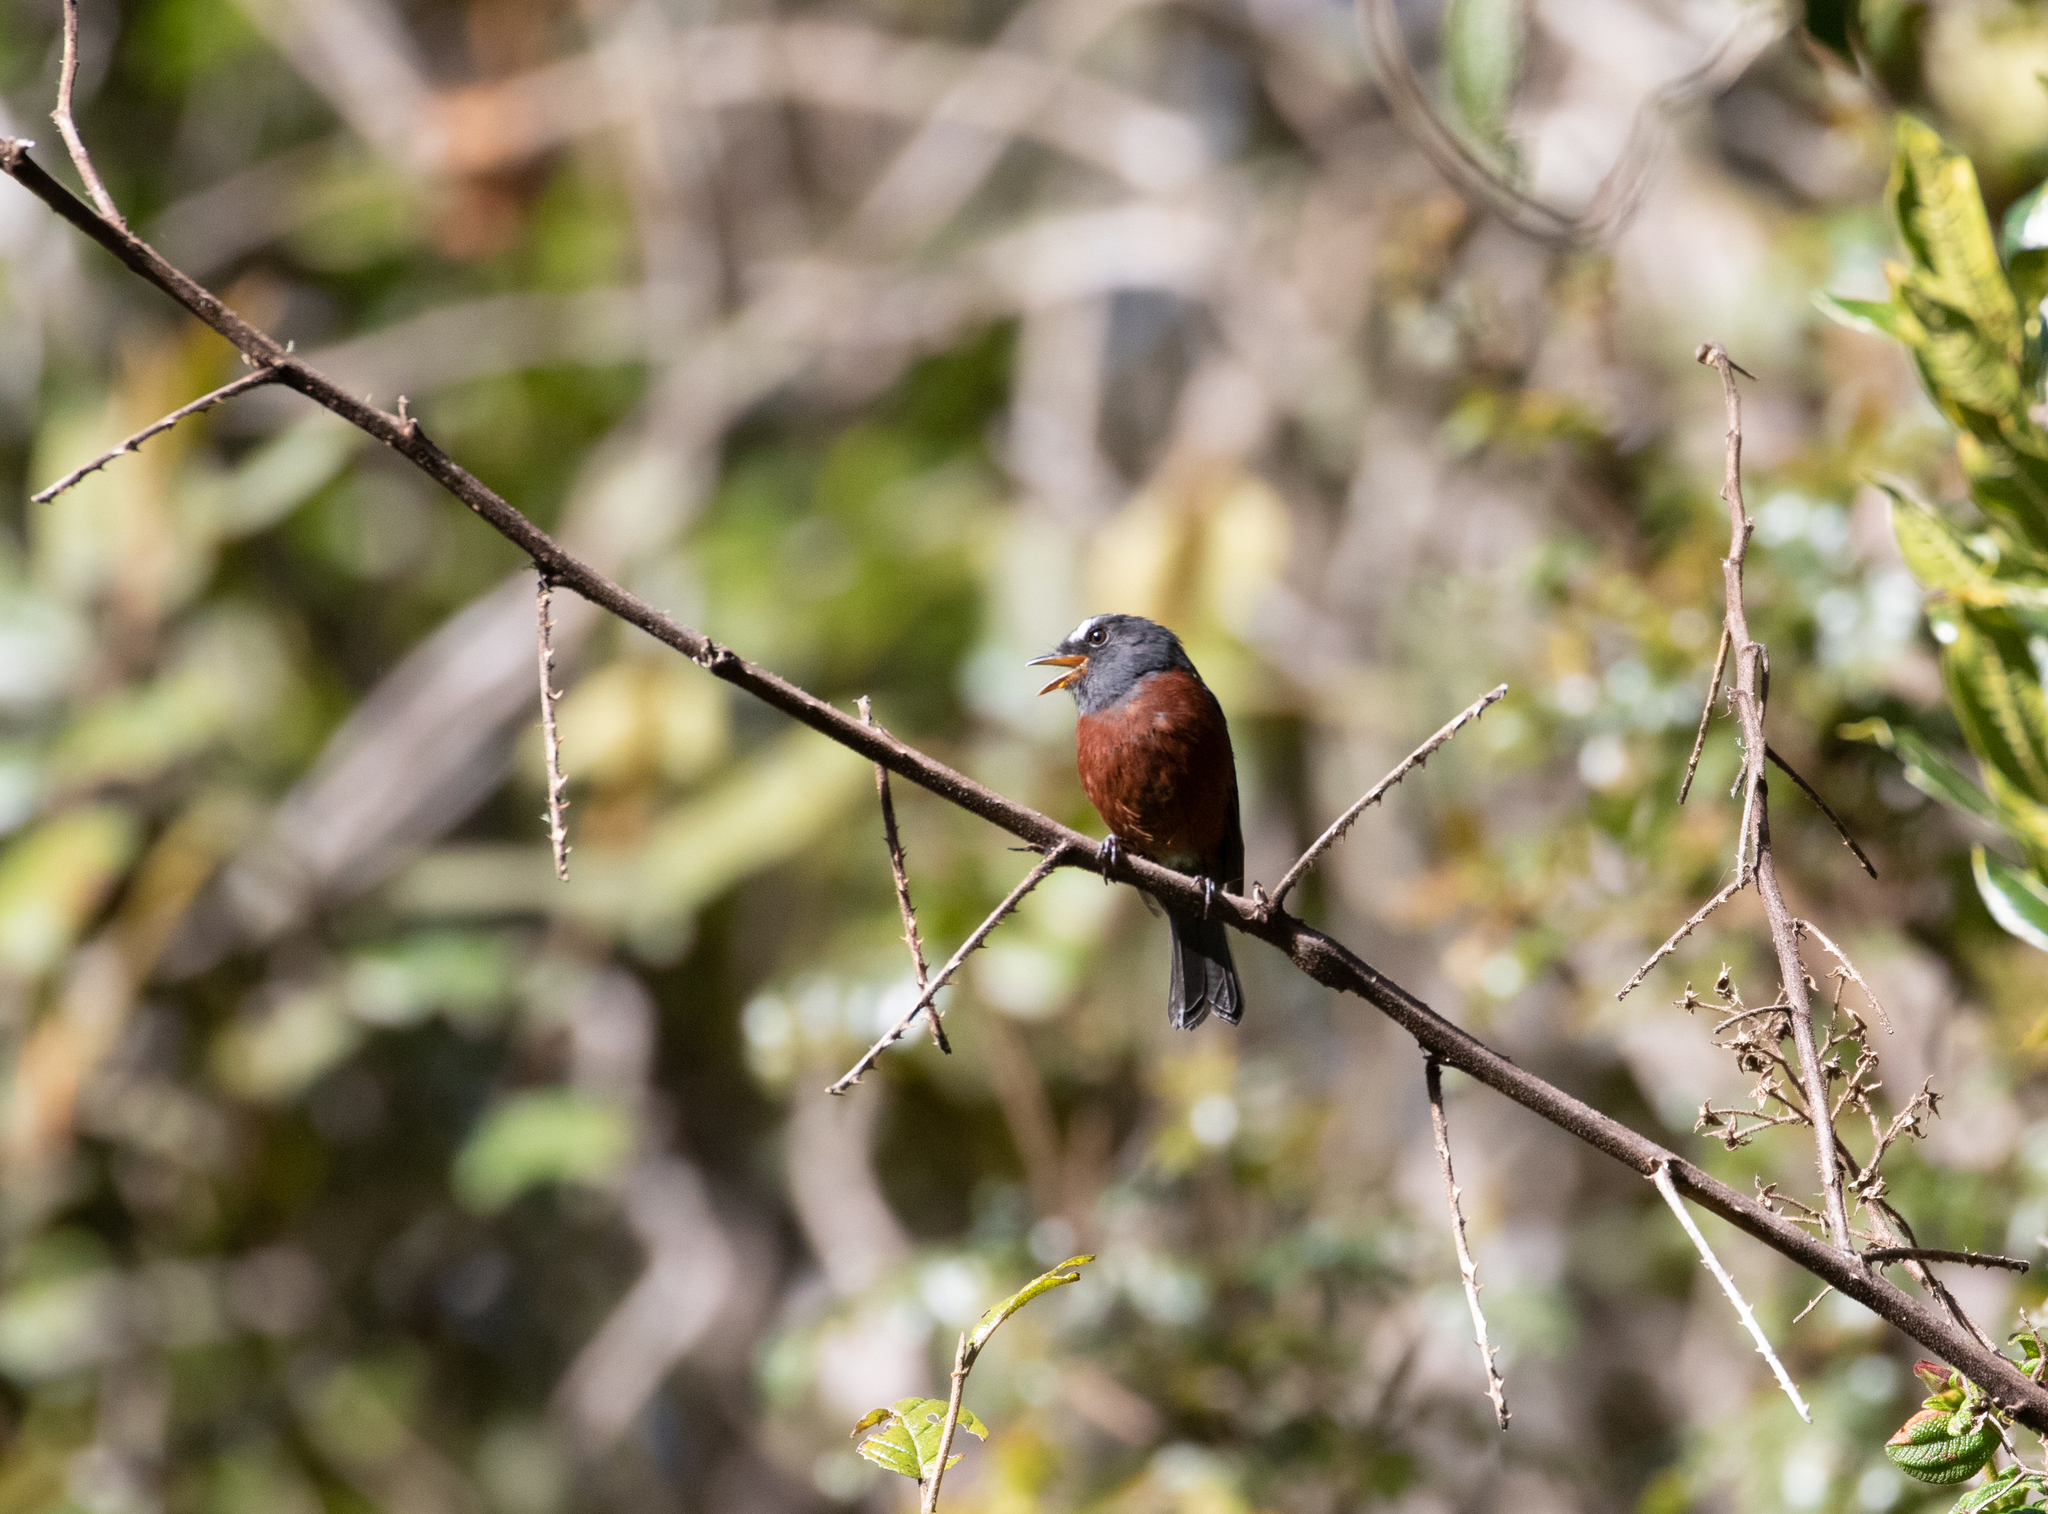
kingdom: Animalia
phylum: Chordata
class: Aves
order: Passeriformes
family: Tyrannidae
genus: Ochthoeca
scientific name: Ochthoeca cinnamomeiventris
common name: Slaty-backed chat-tyrant
